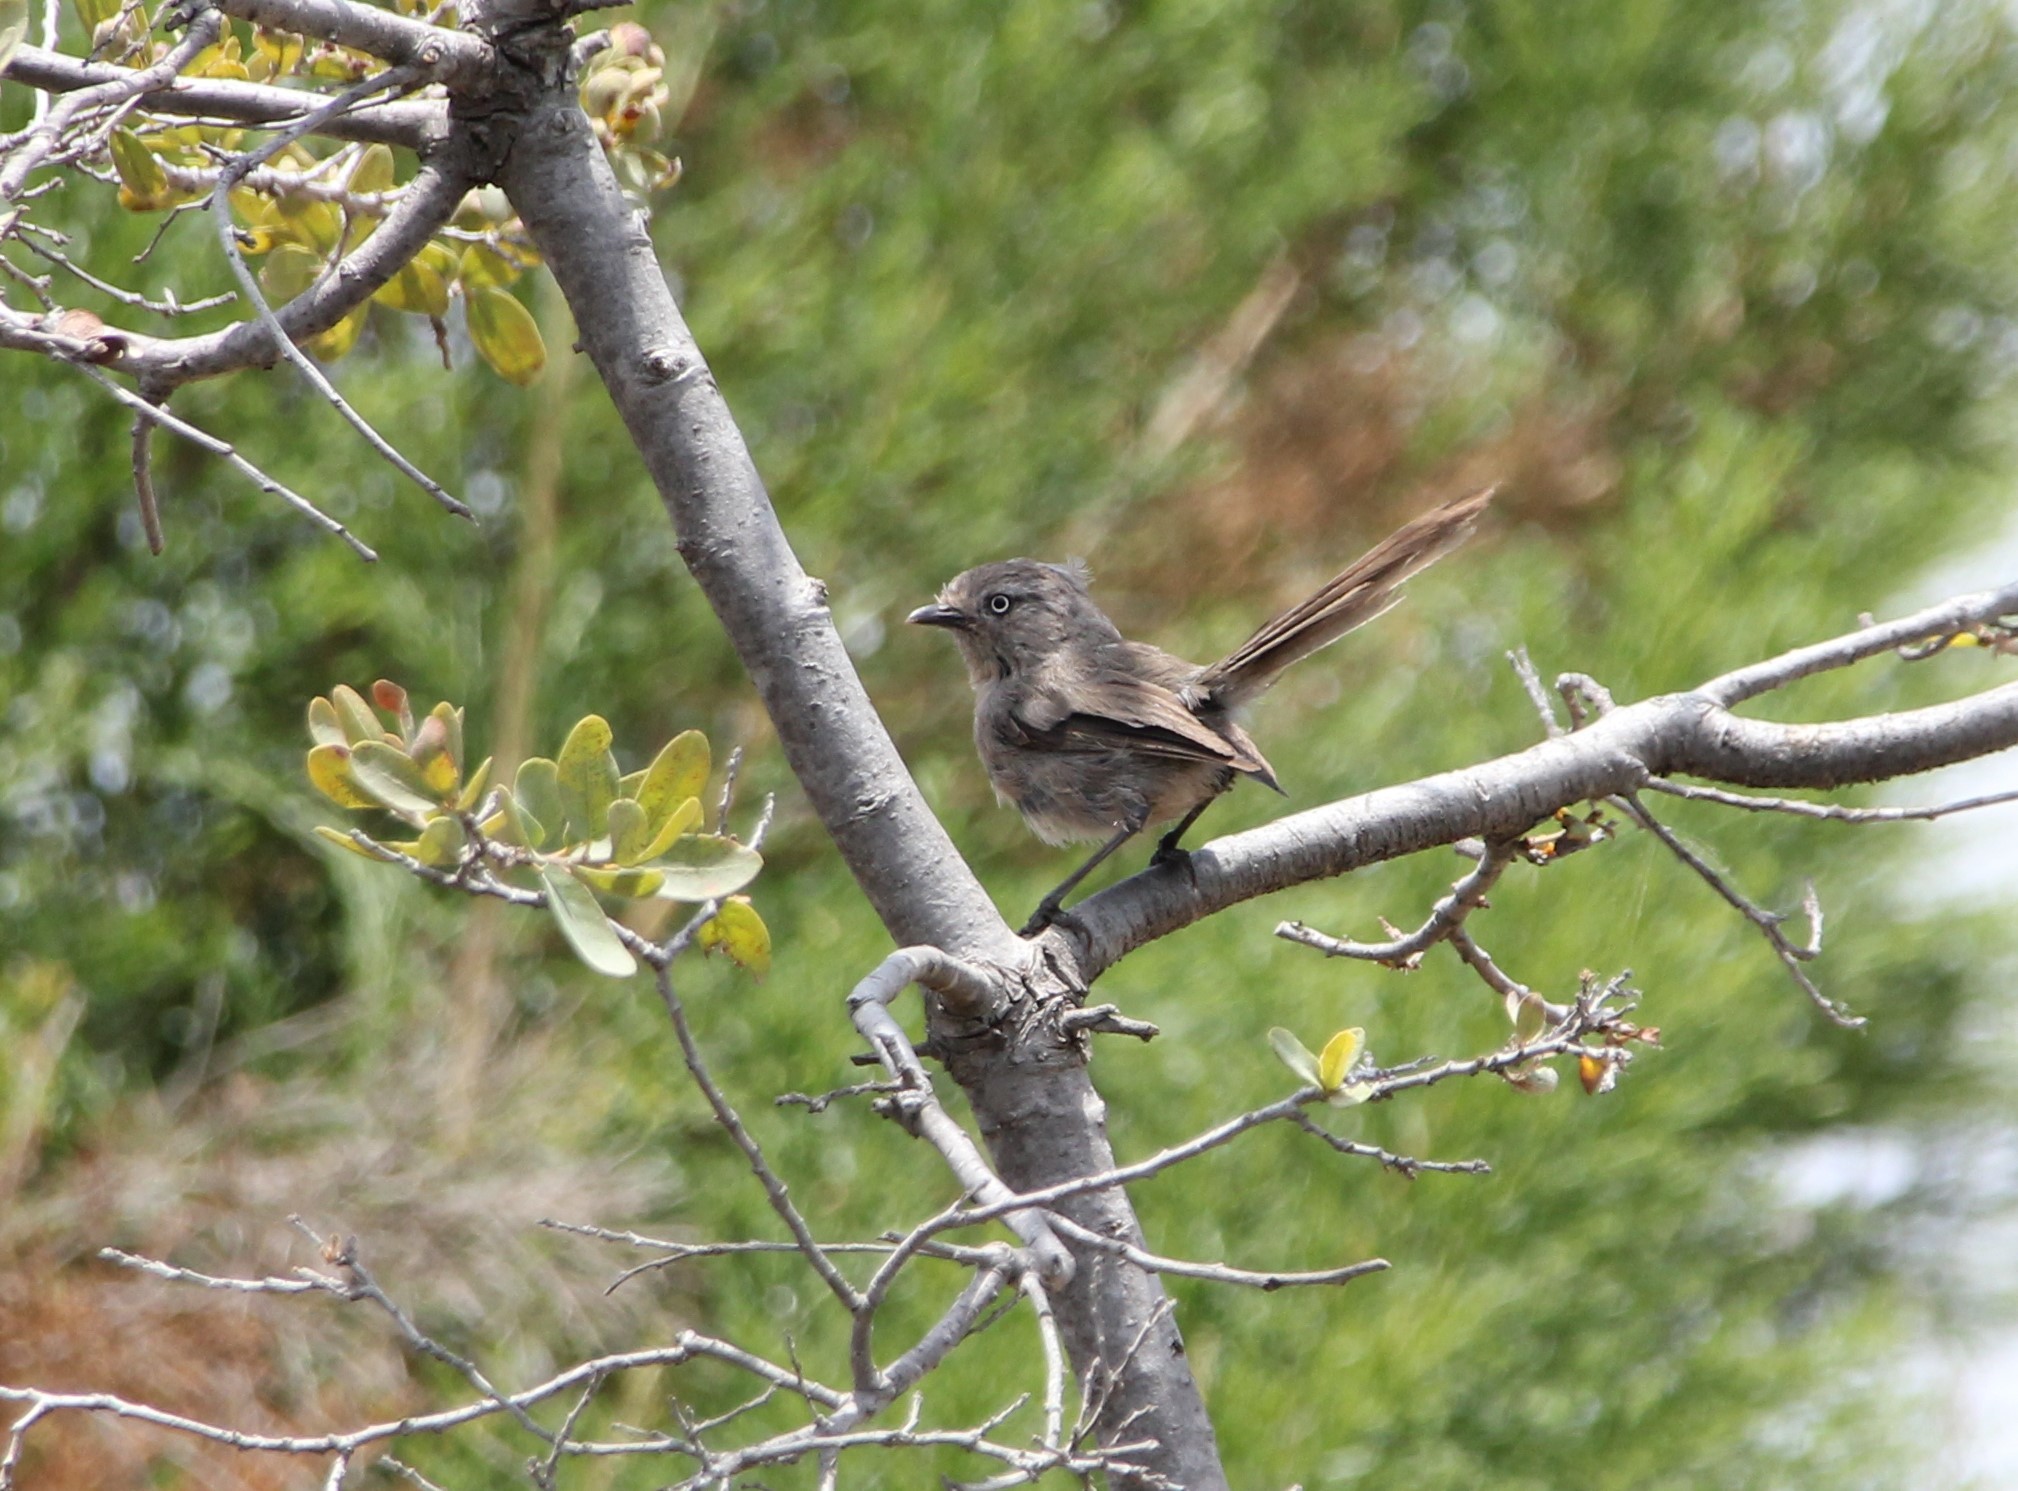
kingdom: Animalia
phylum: Chordata
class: Aves
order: Passeriformes
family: Sylviidae
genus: Chamaea
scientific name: Chamaea fasciata
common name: Wrentit
